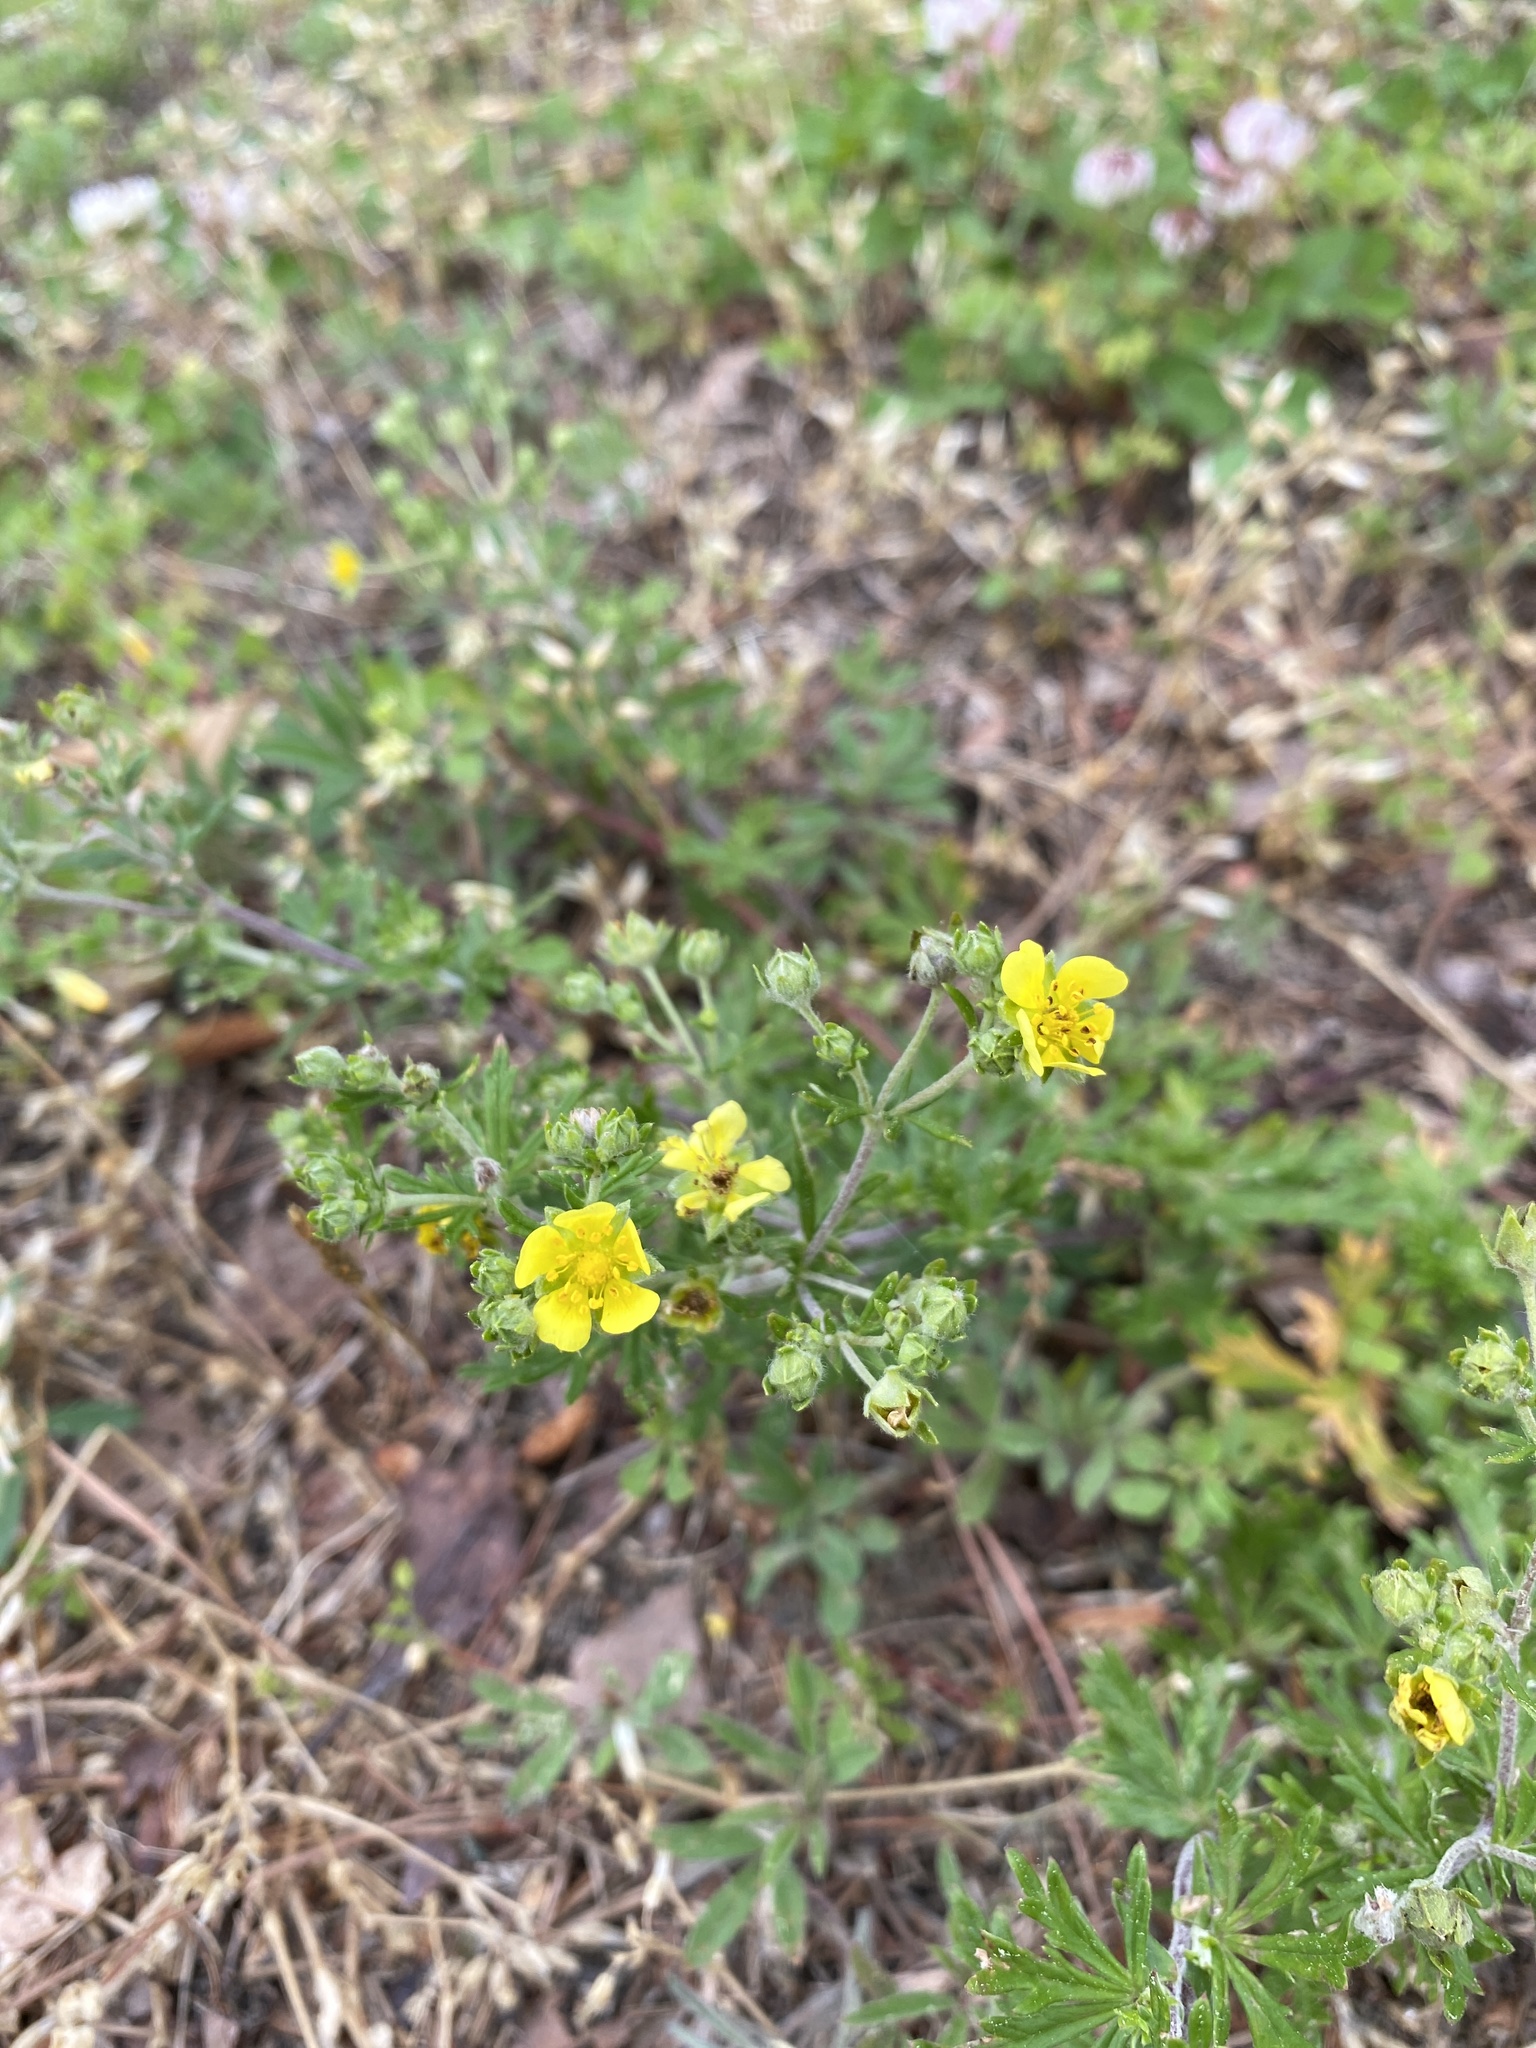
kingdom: Plantae
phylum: Tracheophyta
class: Magnoliopsida
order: Rosales
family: Rosaceae
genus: Potentilla
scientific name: Potentilla argentea
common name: Hoary cinquefoil
